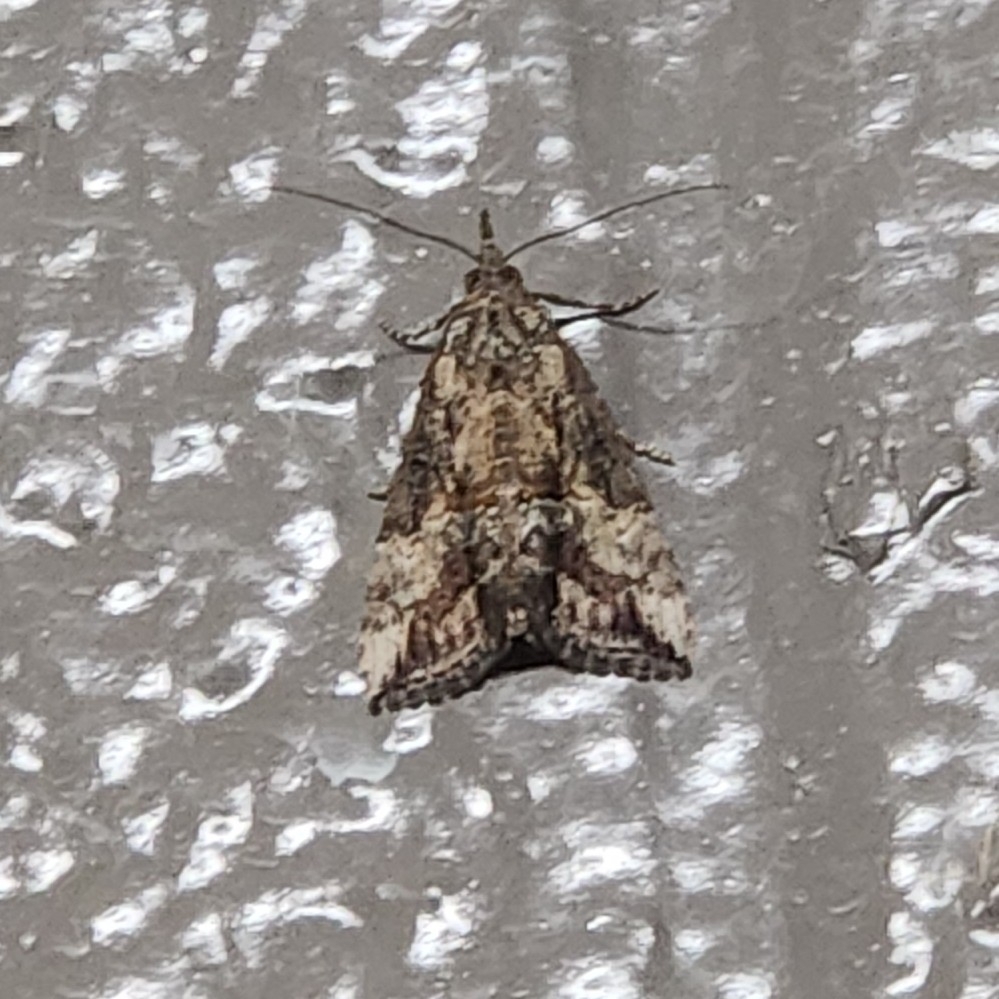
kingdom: Animalia
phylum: Arthropoda
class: Insecta
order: Lepidoptera
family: Erebidae
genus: Hypena
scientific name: Hypena scabra
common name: Green cloverworm
